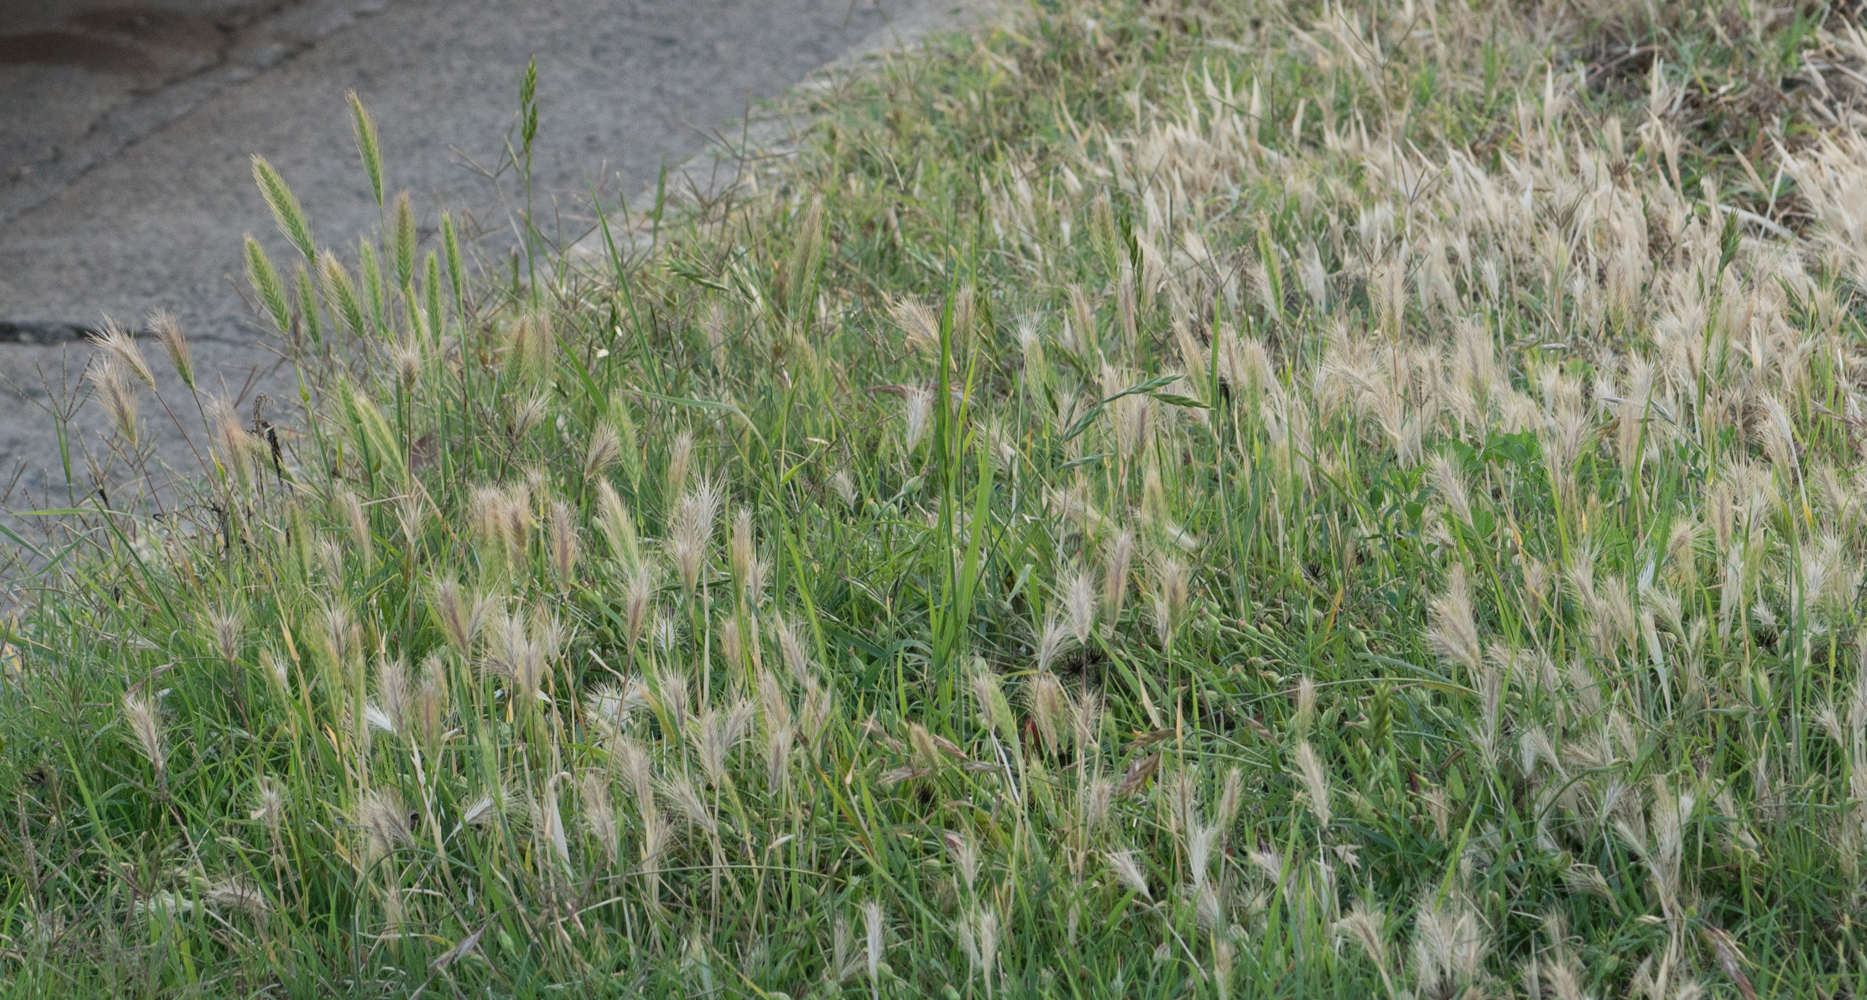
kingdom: Plantae
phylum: Tracheophyta
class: Liliopsida
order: Poales
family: Poaceae
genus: Hordeum
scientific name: Hordeum murinum
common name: Wall barley
